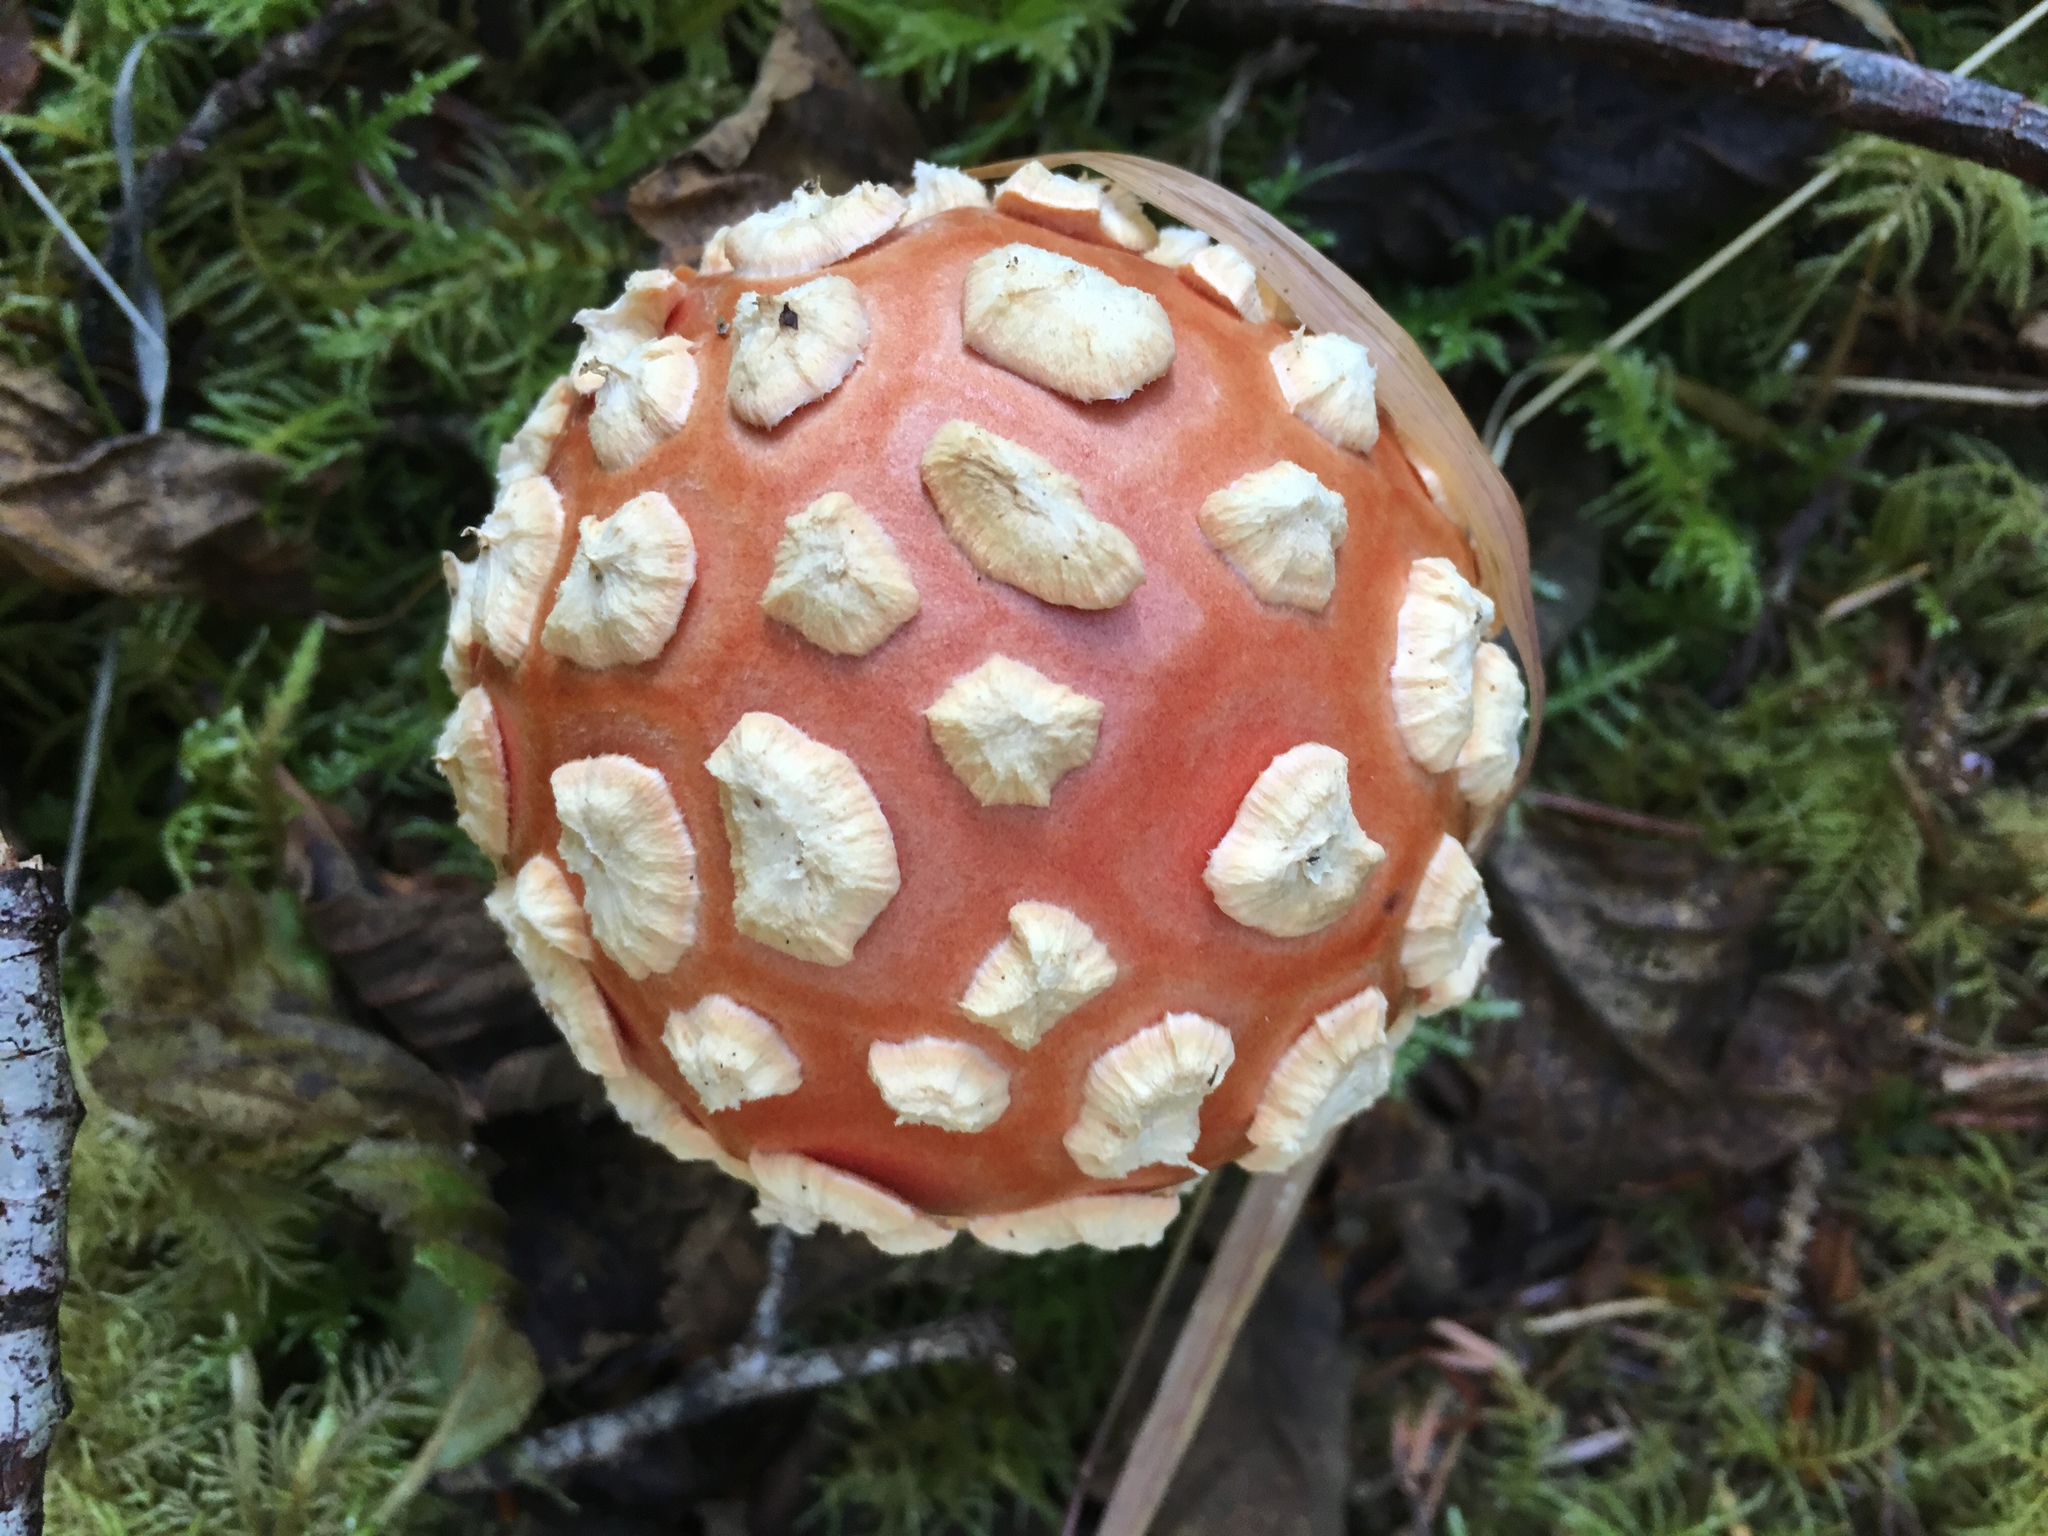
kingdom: Fungi
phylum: Basidiomycota
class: Agaricomycetes
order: Agaricales
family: Amanitaceae
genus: Amanita
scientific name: Amanita muscaria
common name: Fly agaric
